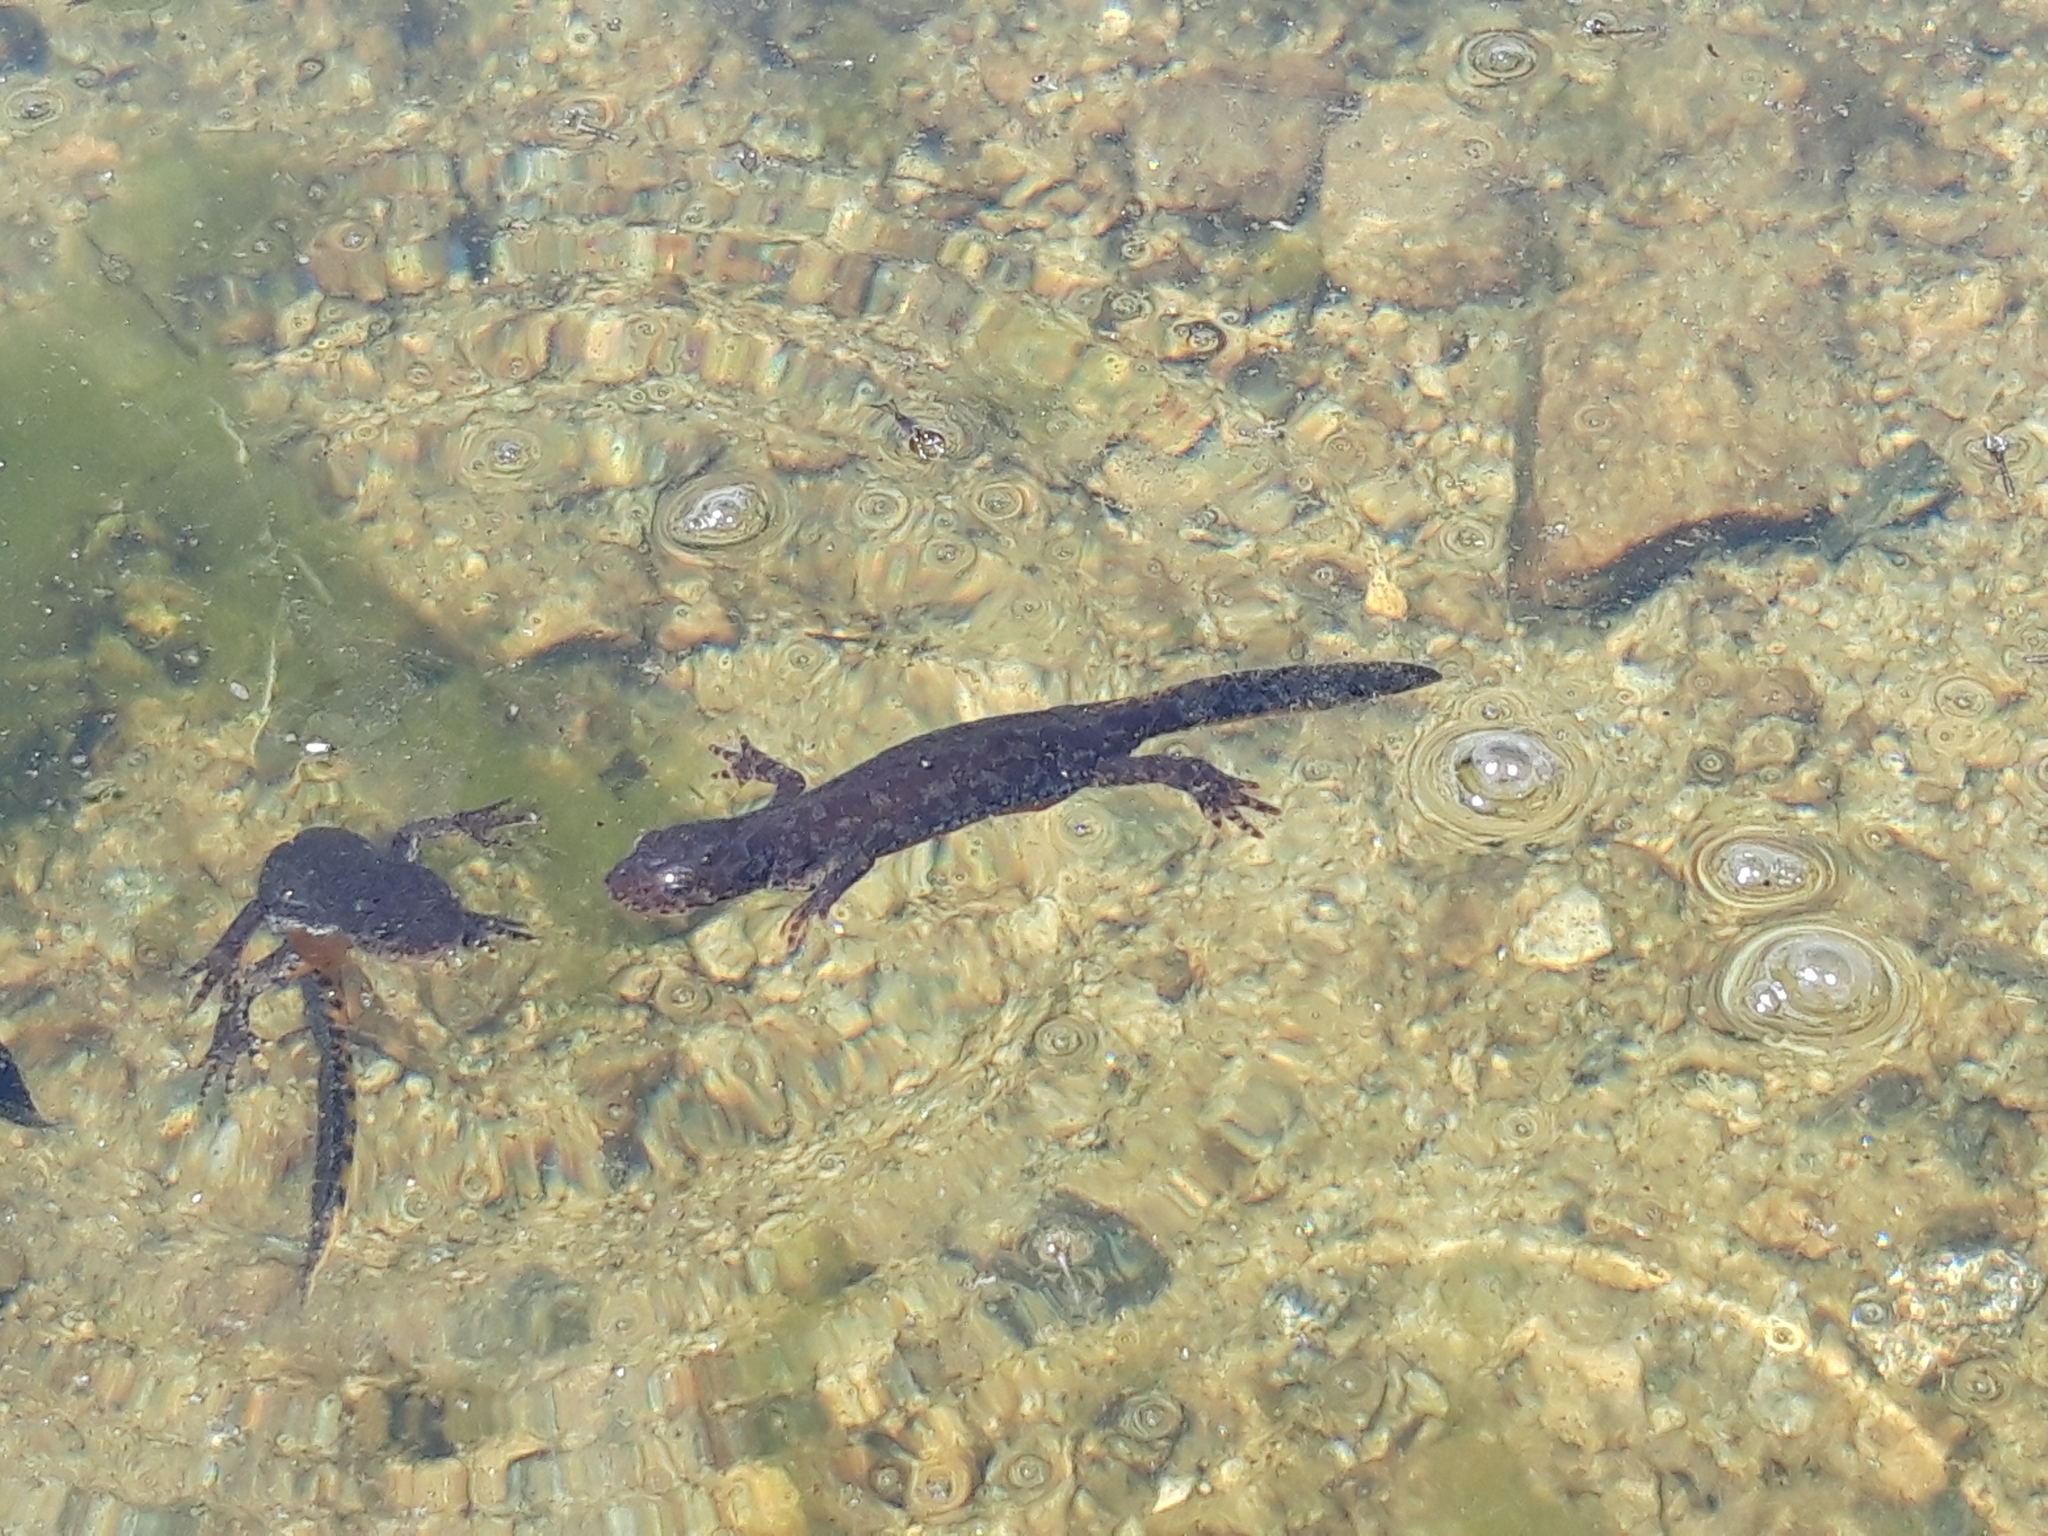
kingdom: Animalia
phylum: Chordata
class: Amphibia
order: Caudata
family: Salamandridae
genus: Ichthyosaura
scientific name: Ichthyosaura alpestris
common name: Alpine newt
